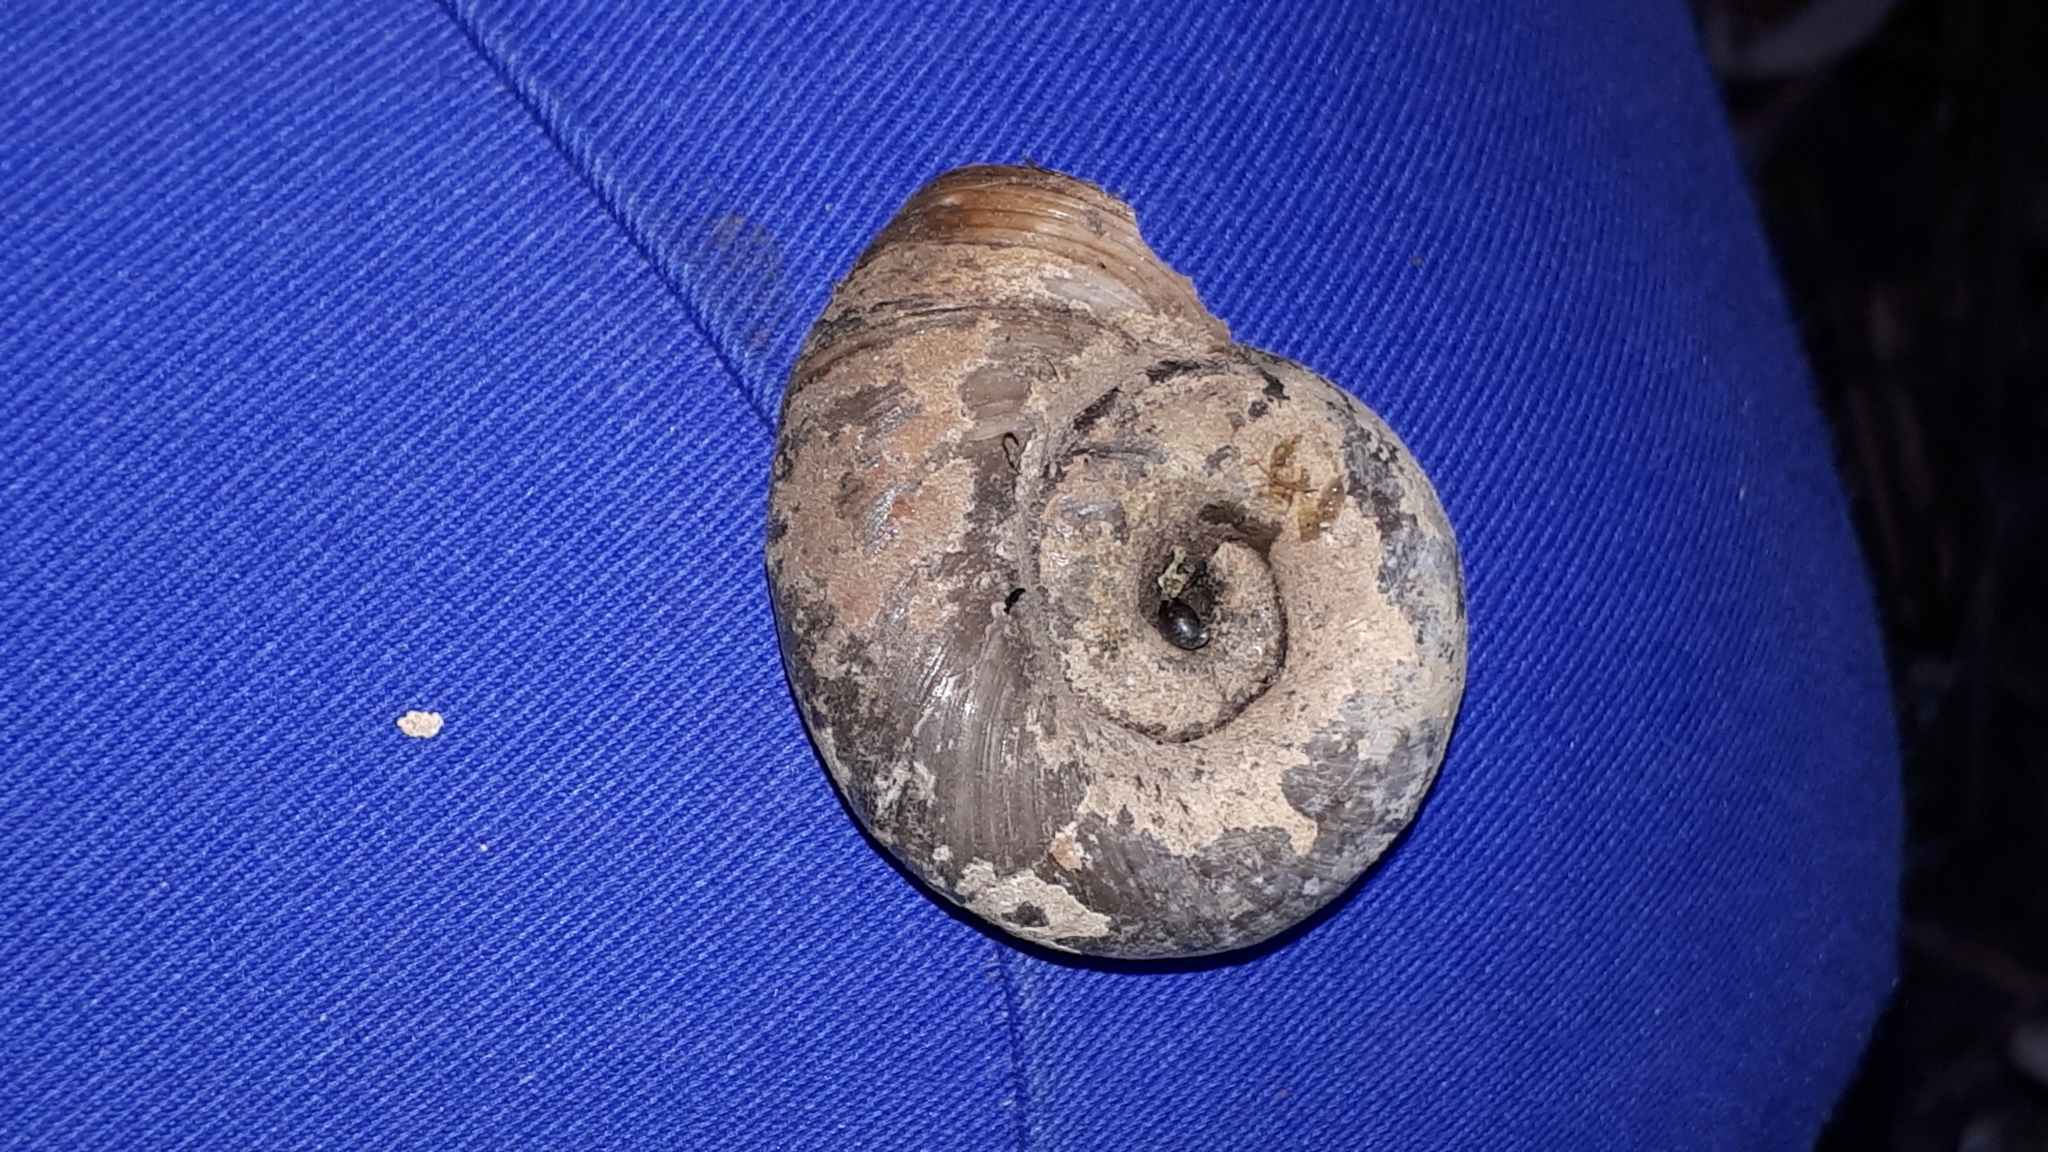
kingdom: Animalia
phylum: Mollusca
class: Gastropoda
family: Planorbidae
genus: Planorbarius
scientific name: Planorbarius corneus
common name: Great ramshorn
